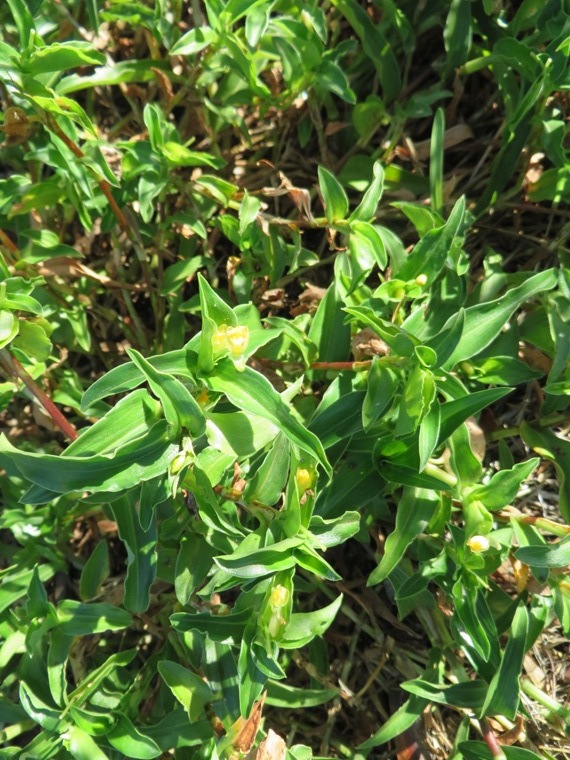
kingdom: Plantae
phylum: Tracheophyta
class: Liliopsida
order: Commelinales
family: Commelinaceae
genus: Commelina
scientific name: Commelina africana
